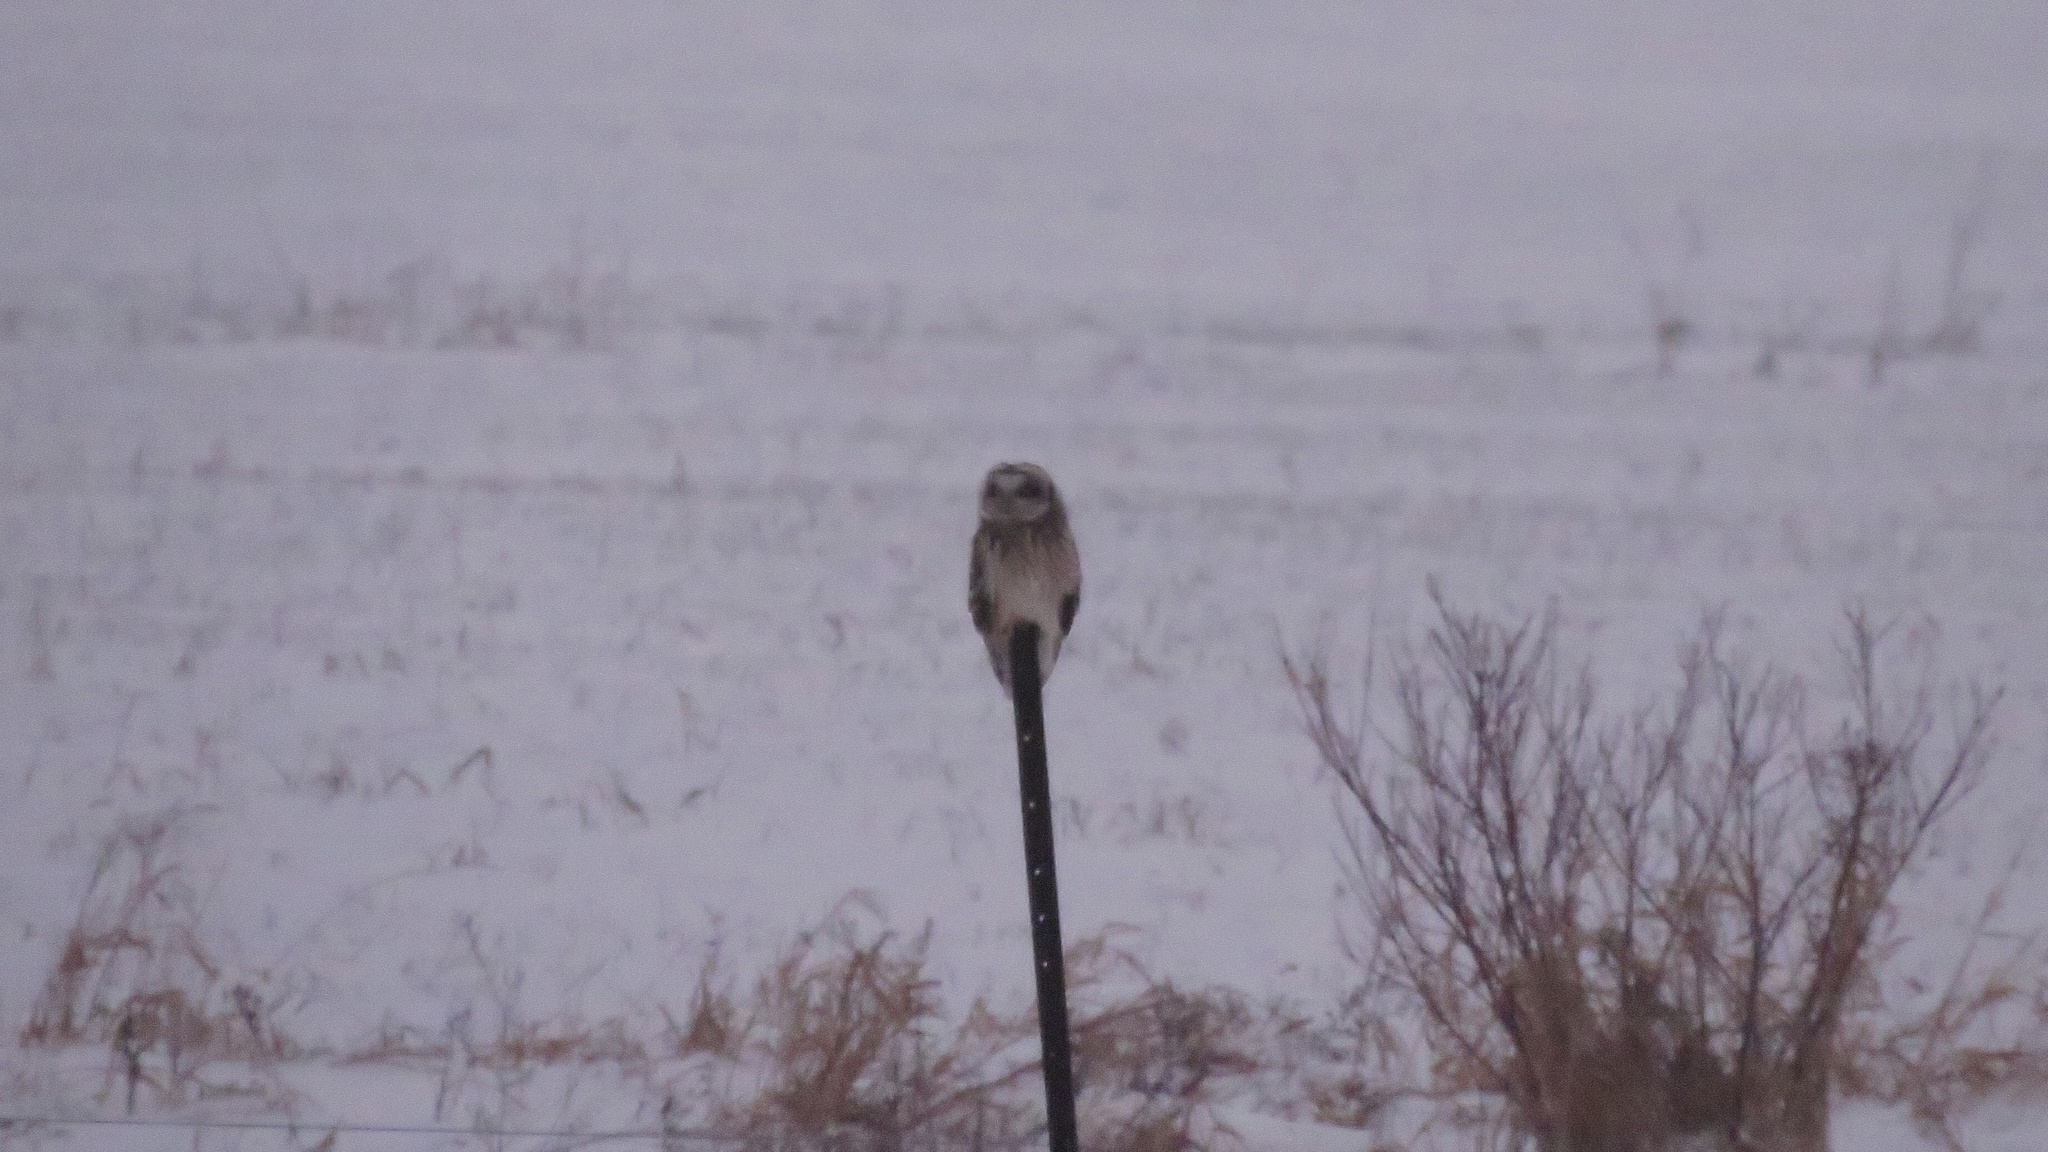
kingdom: Animalia
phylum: Chordata
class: Aves
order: Strigiformes
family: Strigidae
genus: Asio
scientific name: Asio flammeus
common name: Short-eared owl
